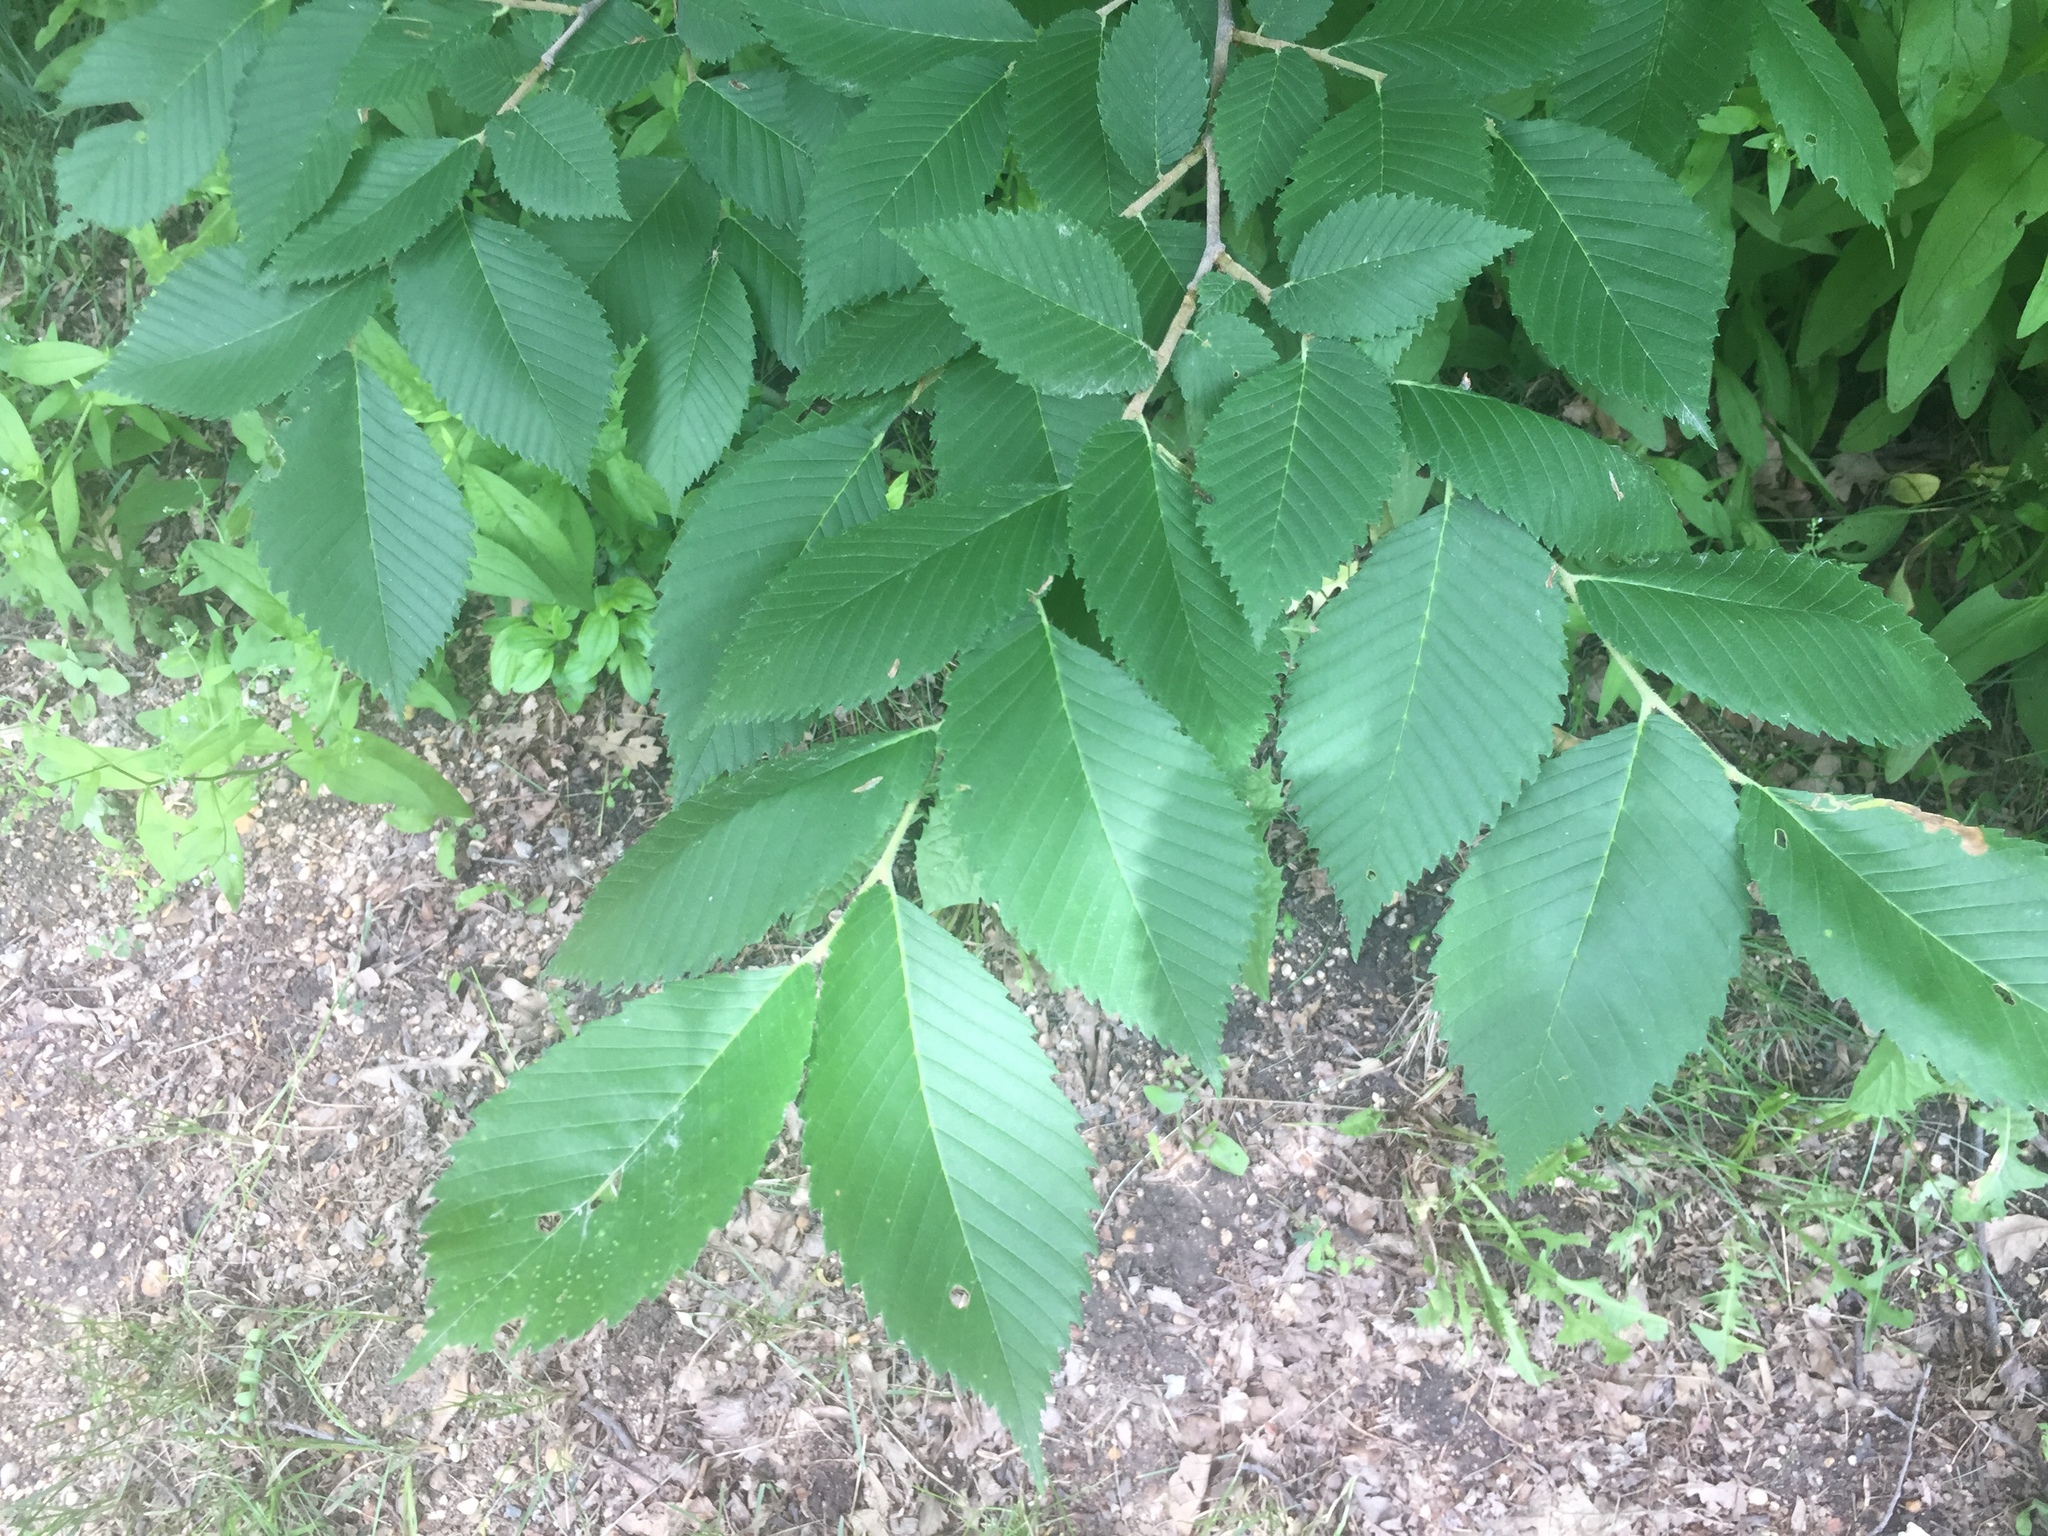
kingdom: Plantae
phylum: Tracheophyta
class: Magnoliopsida
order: Rosales
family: Ulmaceae
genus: Ulmus
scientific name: Ulmus americana
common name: American elm
